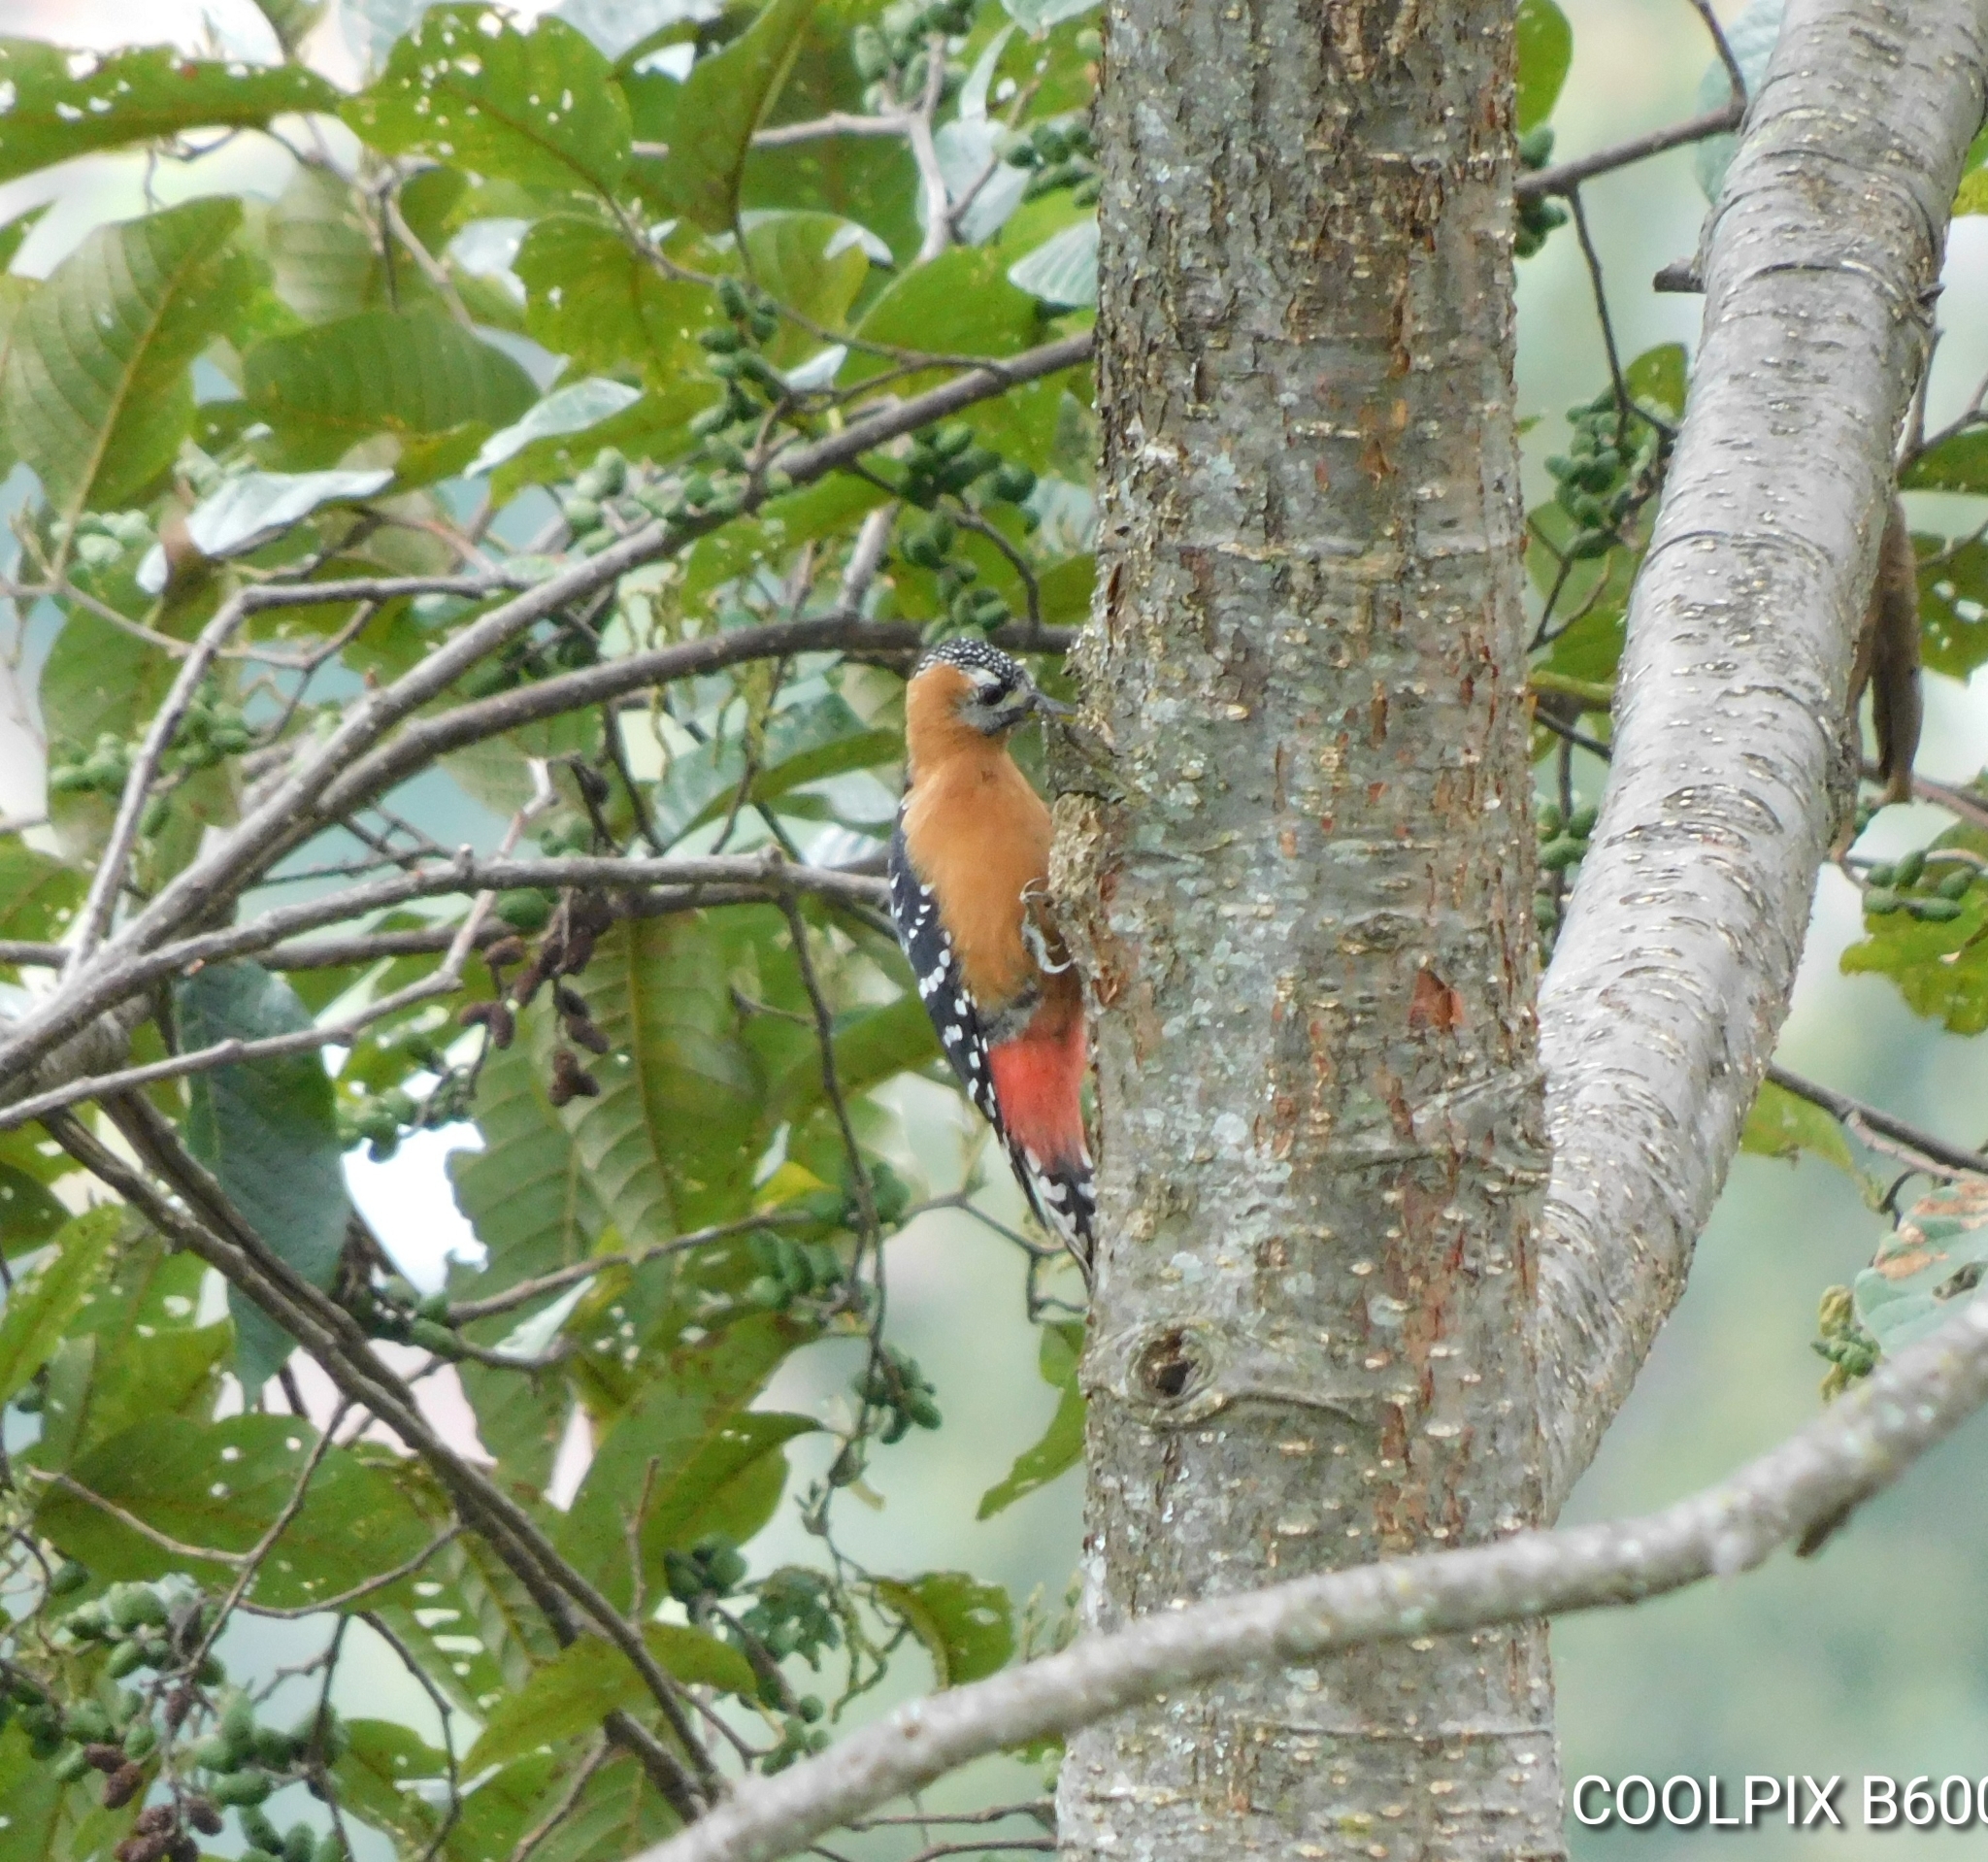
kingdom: Animalia
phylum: Chordata
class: Aves
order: Piciformes
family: Picidae
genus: Dendrocopos
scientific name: Dendrocopos hyperythrus
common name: Rufous-bellied woodpecker
